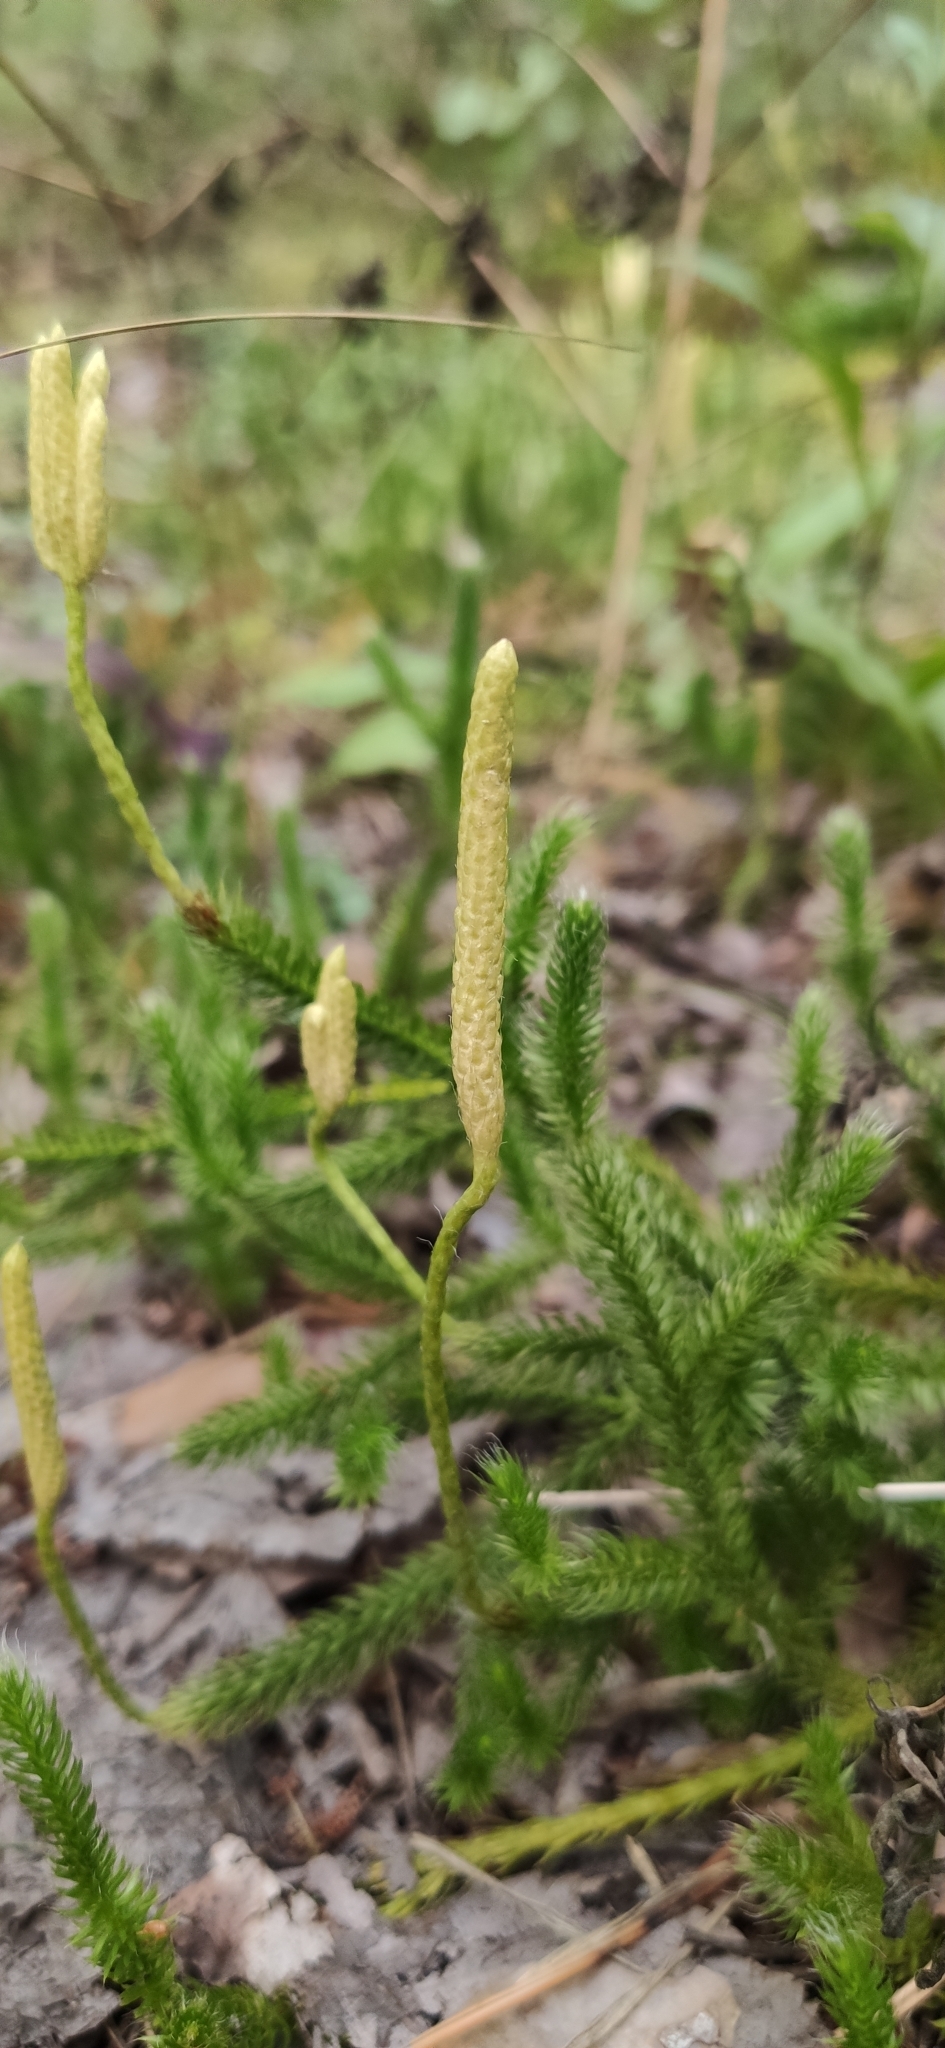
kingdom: Plantae
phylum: Tracheophyta
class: Lycopodiopsida
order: Lycopodiales
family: Lycopodiaceae
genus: Lycopodium
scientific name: Lycopodium clavatum
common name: Stag's-horn clubmoss
